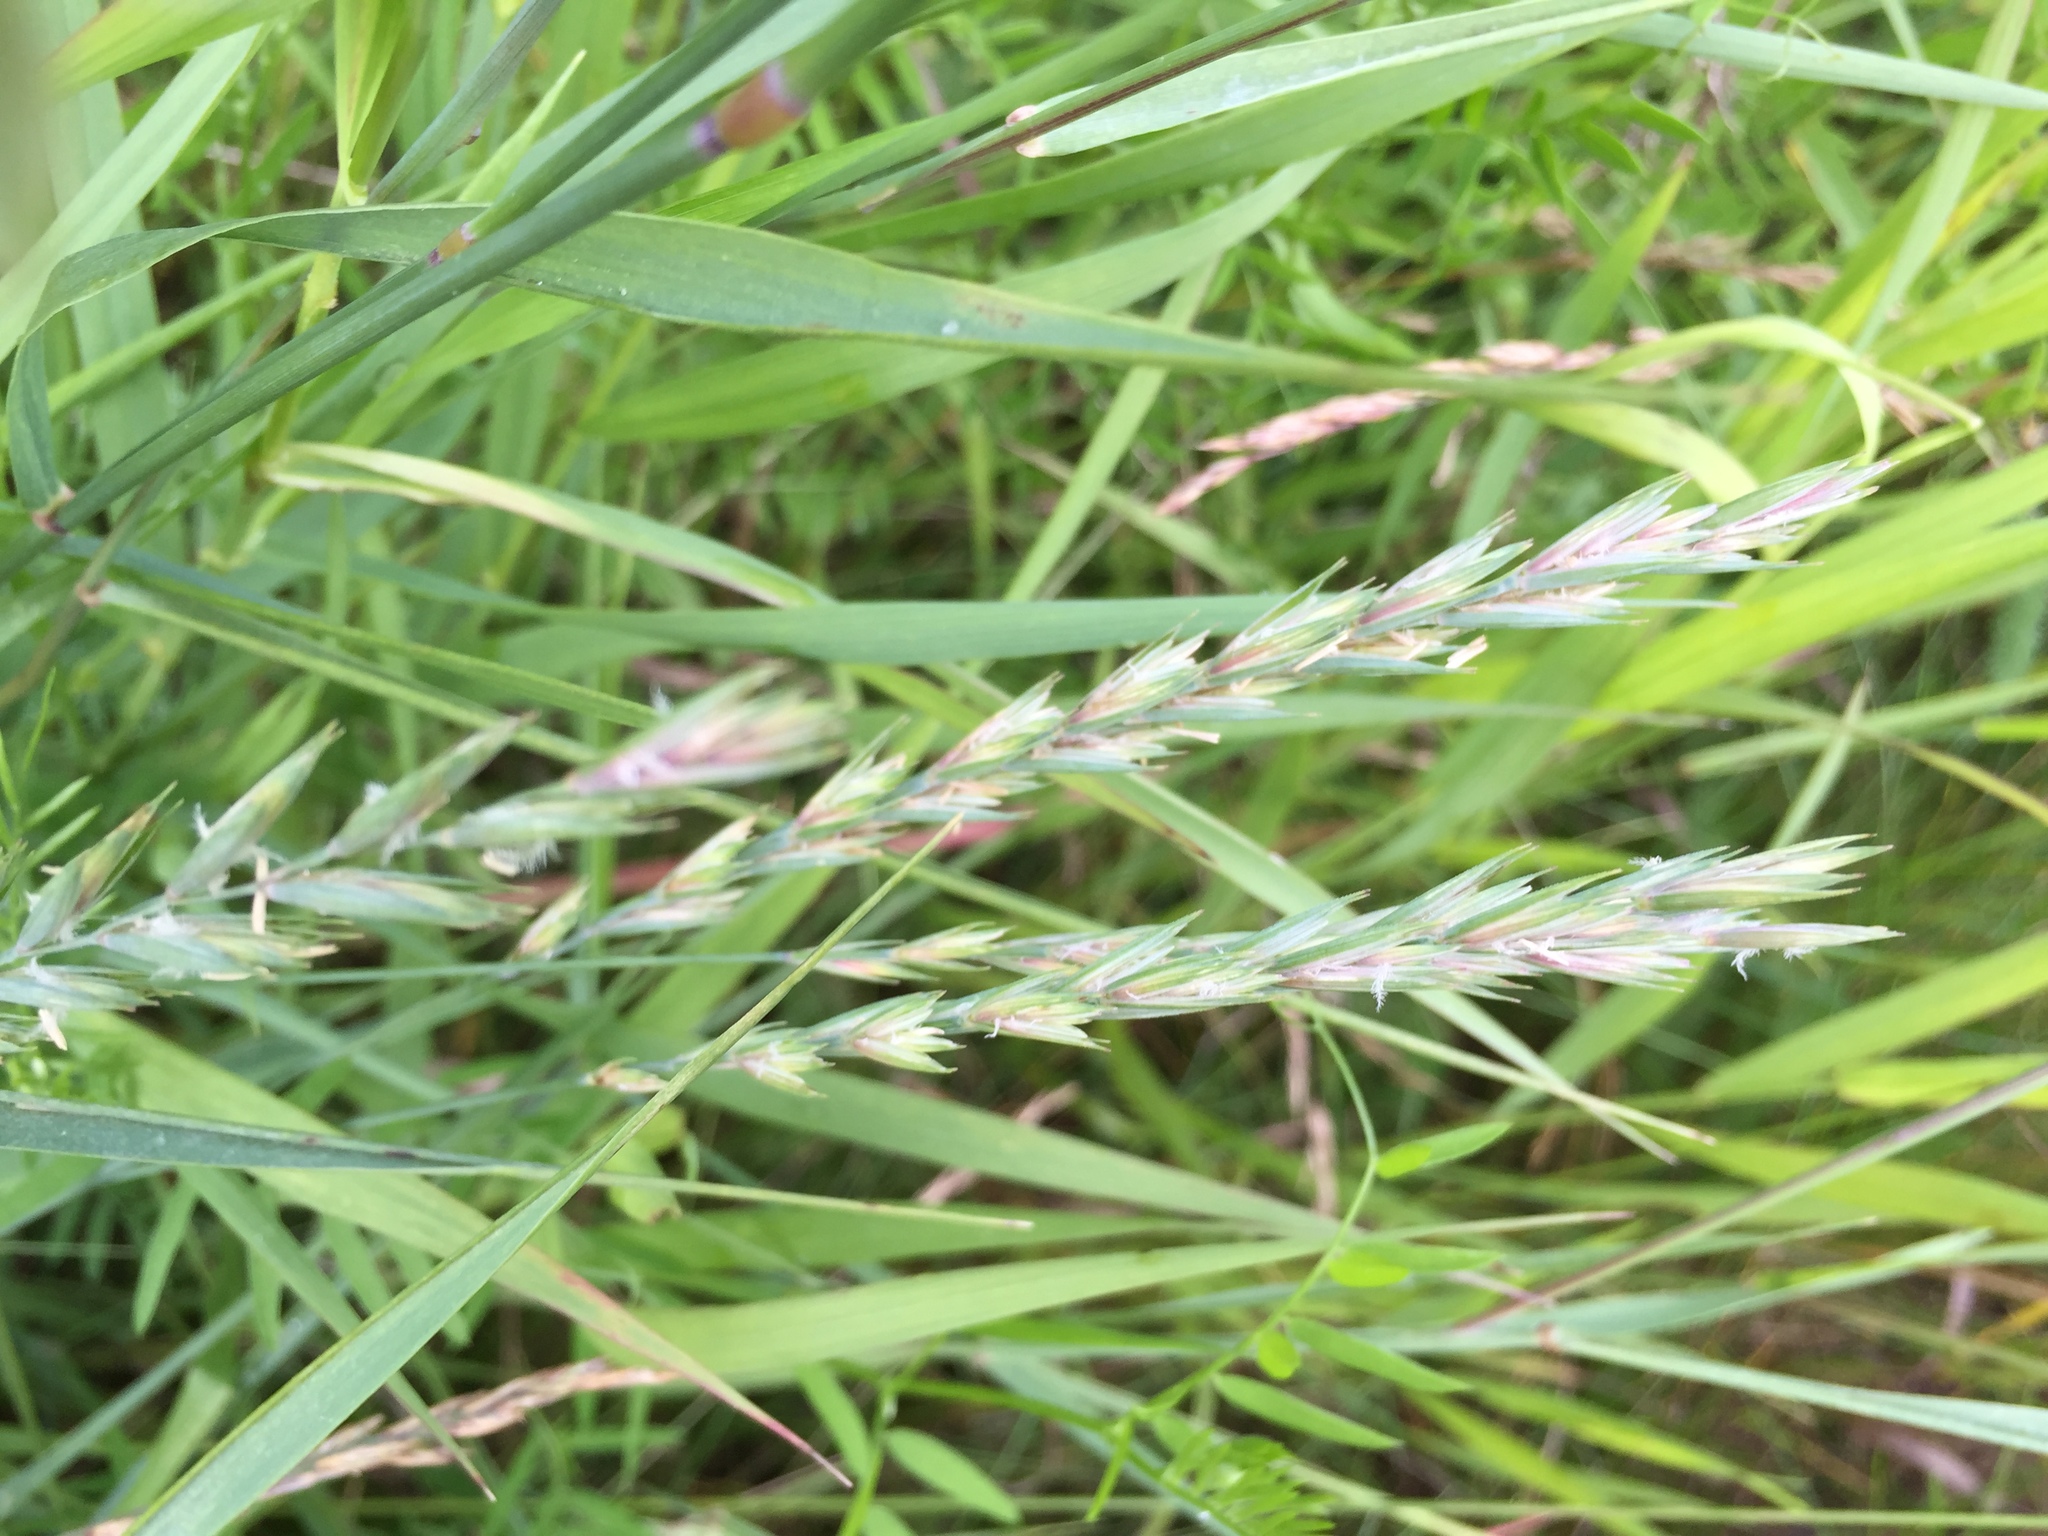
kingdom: Plantae
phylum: Tracheophyta
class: Liliopsida
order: Poales
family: Poaceae
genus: Lolium
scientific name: Lolium multiflorum
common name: Annual ryegrass
